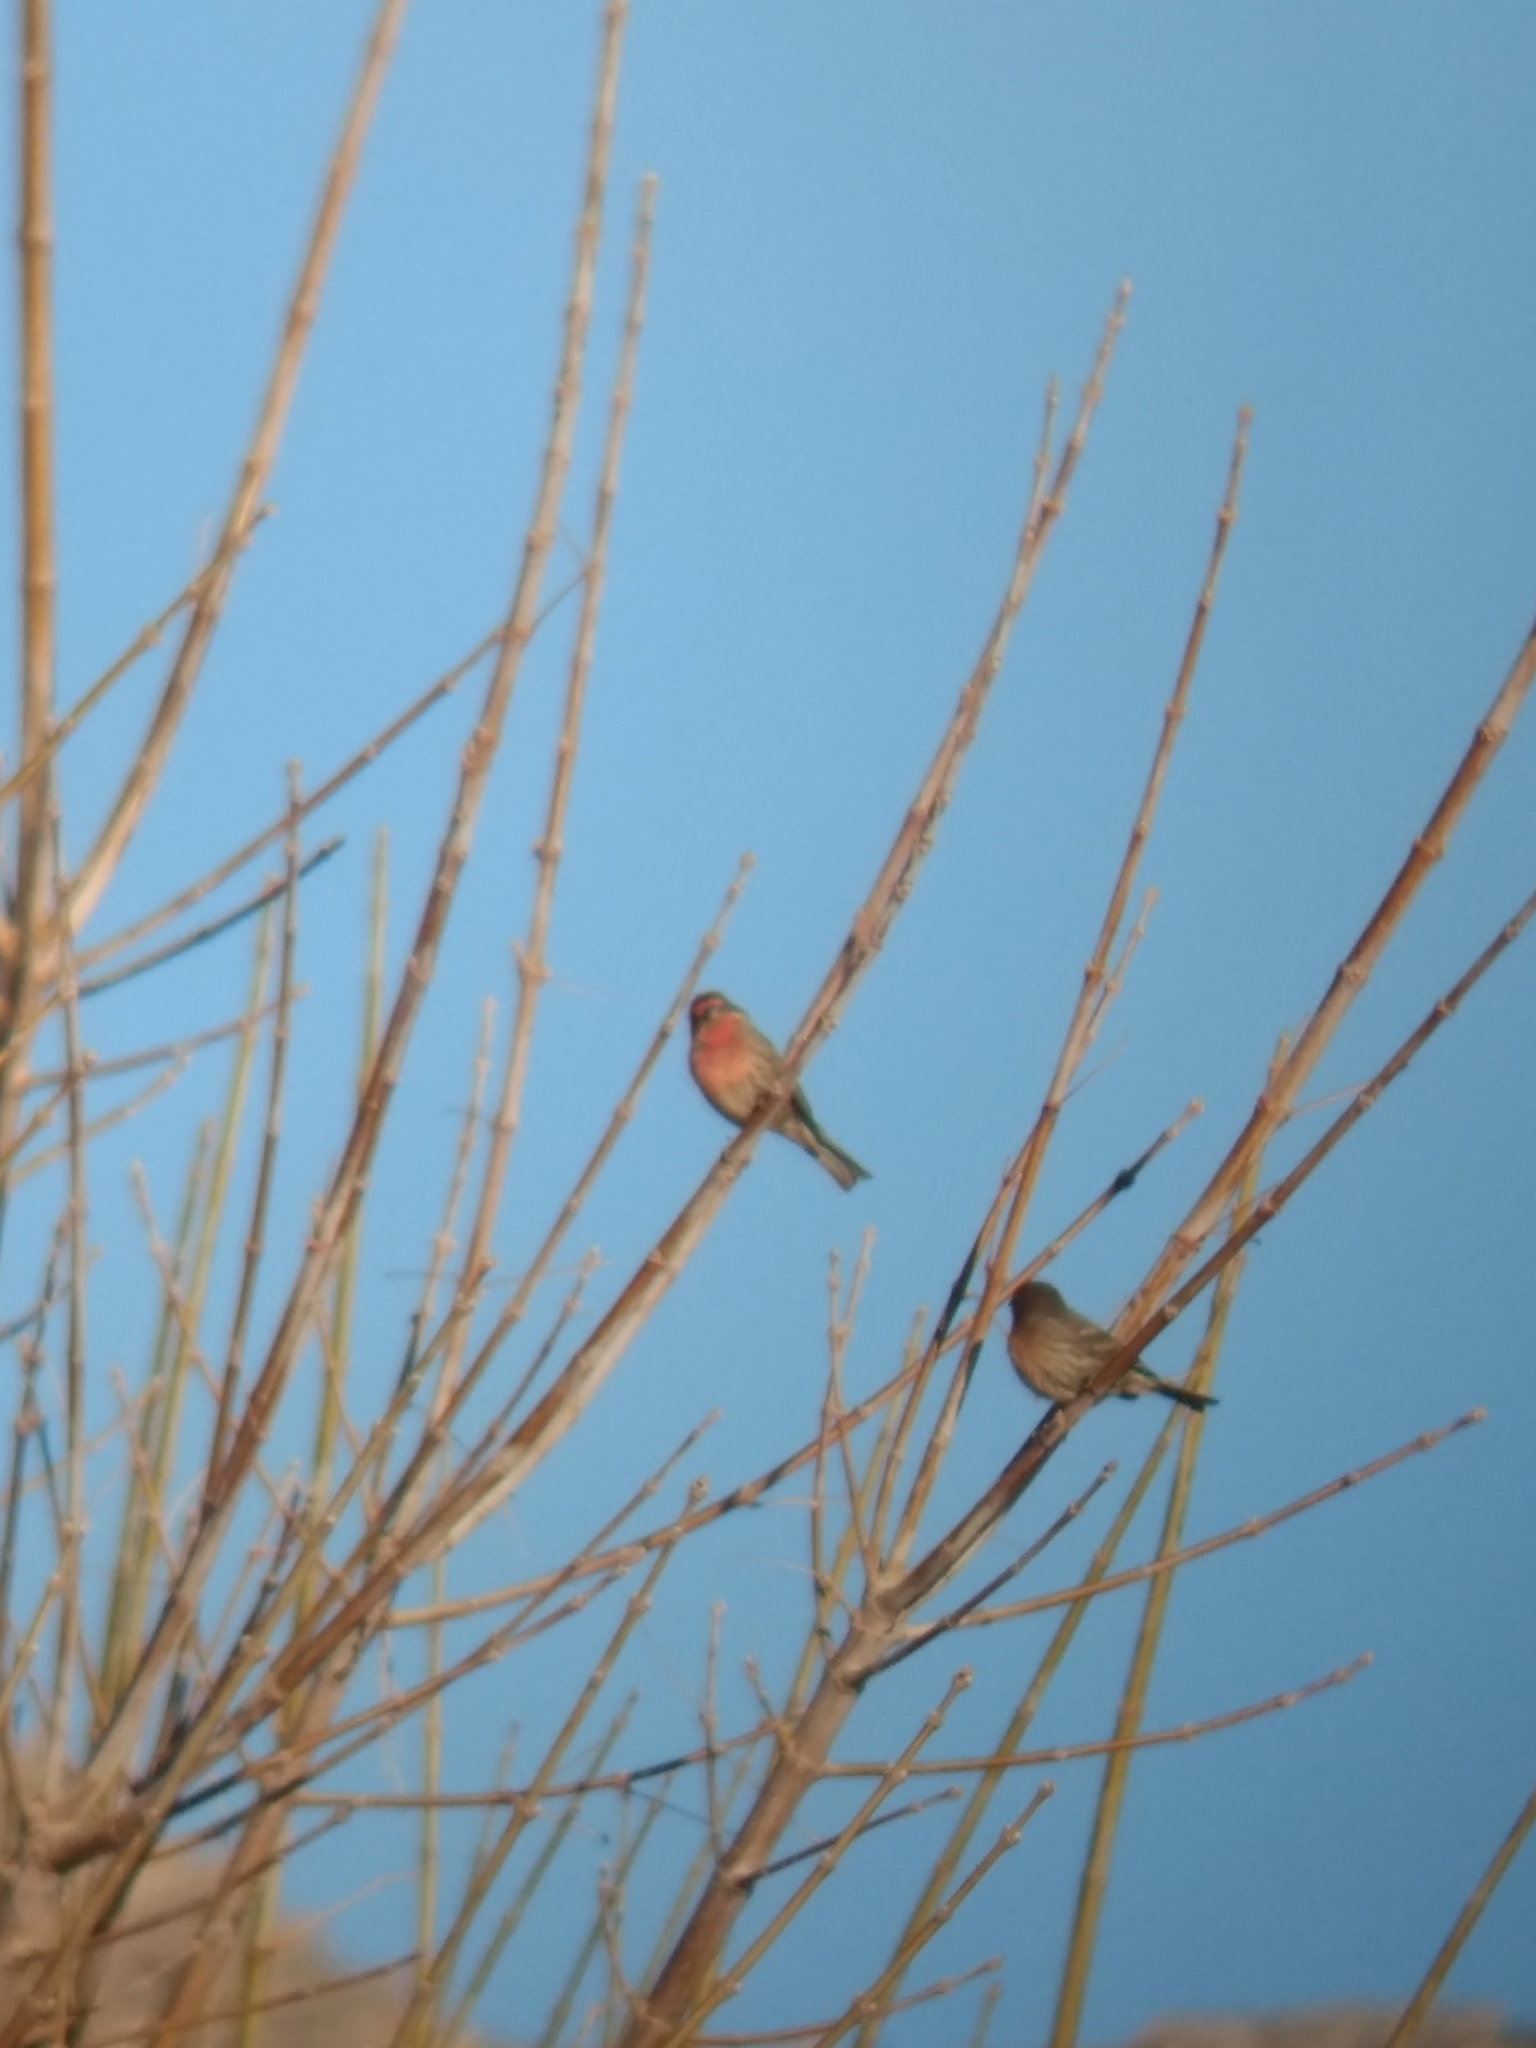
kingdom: Animalia
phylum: Chordata
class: Aves
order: Passeriformes
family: Fringillidae
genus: Haemorhous
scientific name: Haemorhous mexicanus
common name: House finch
